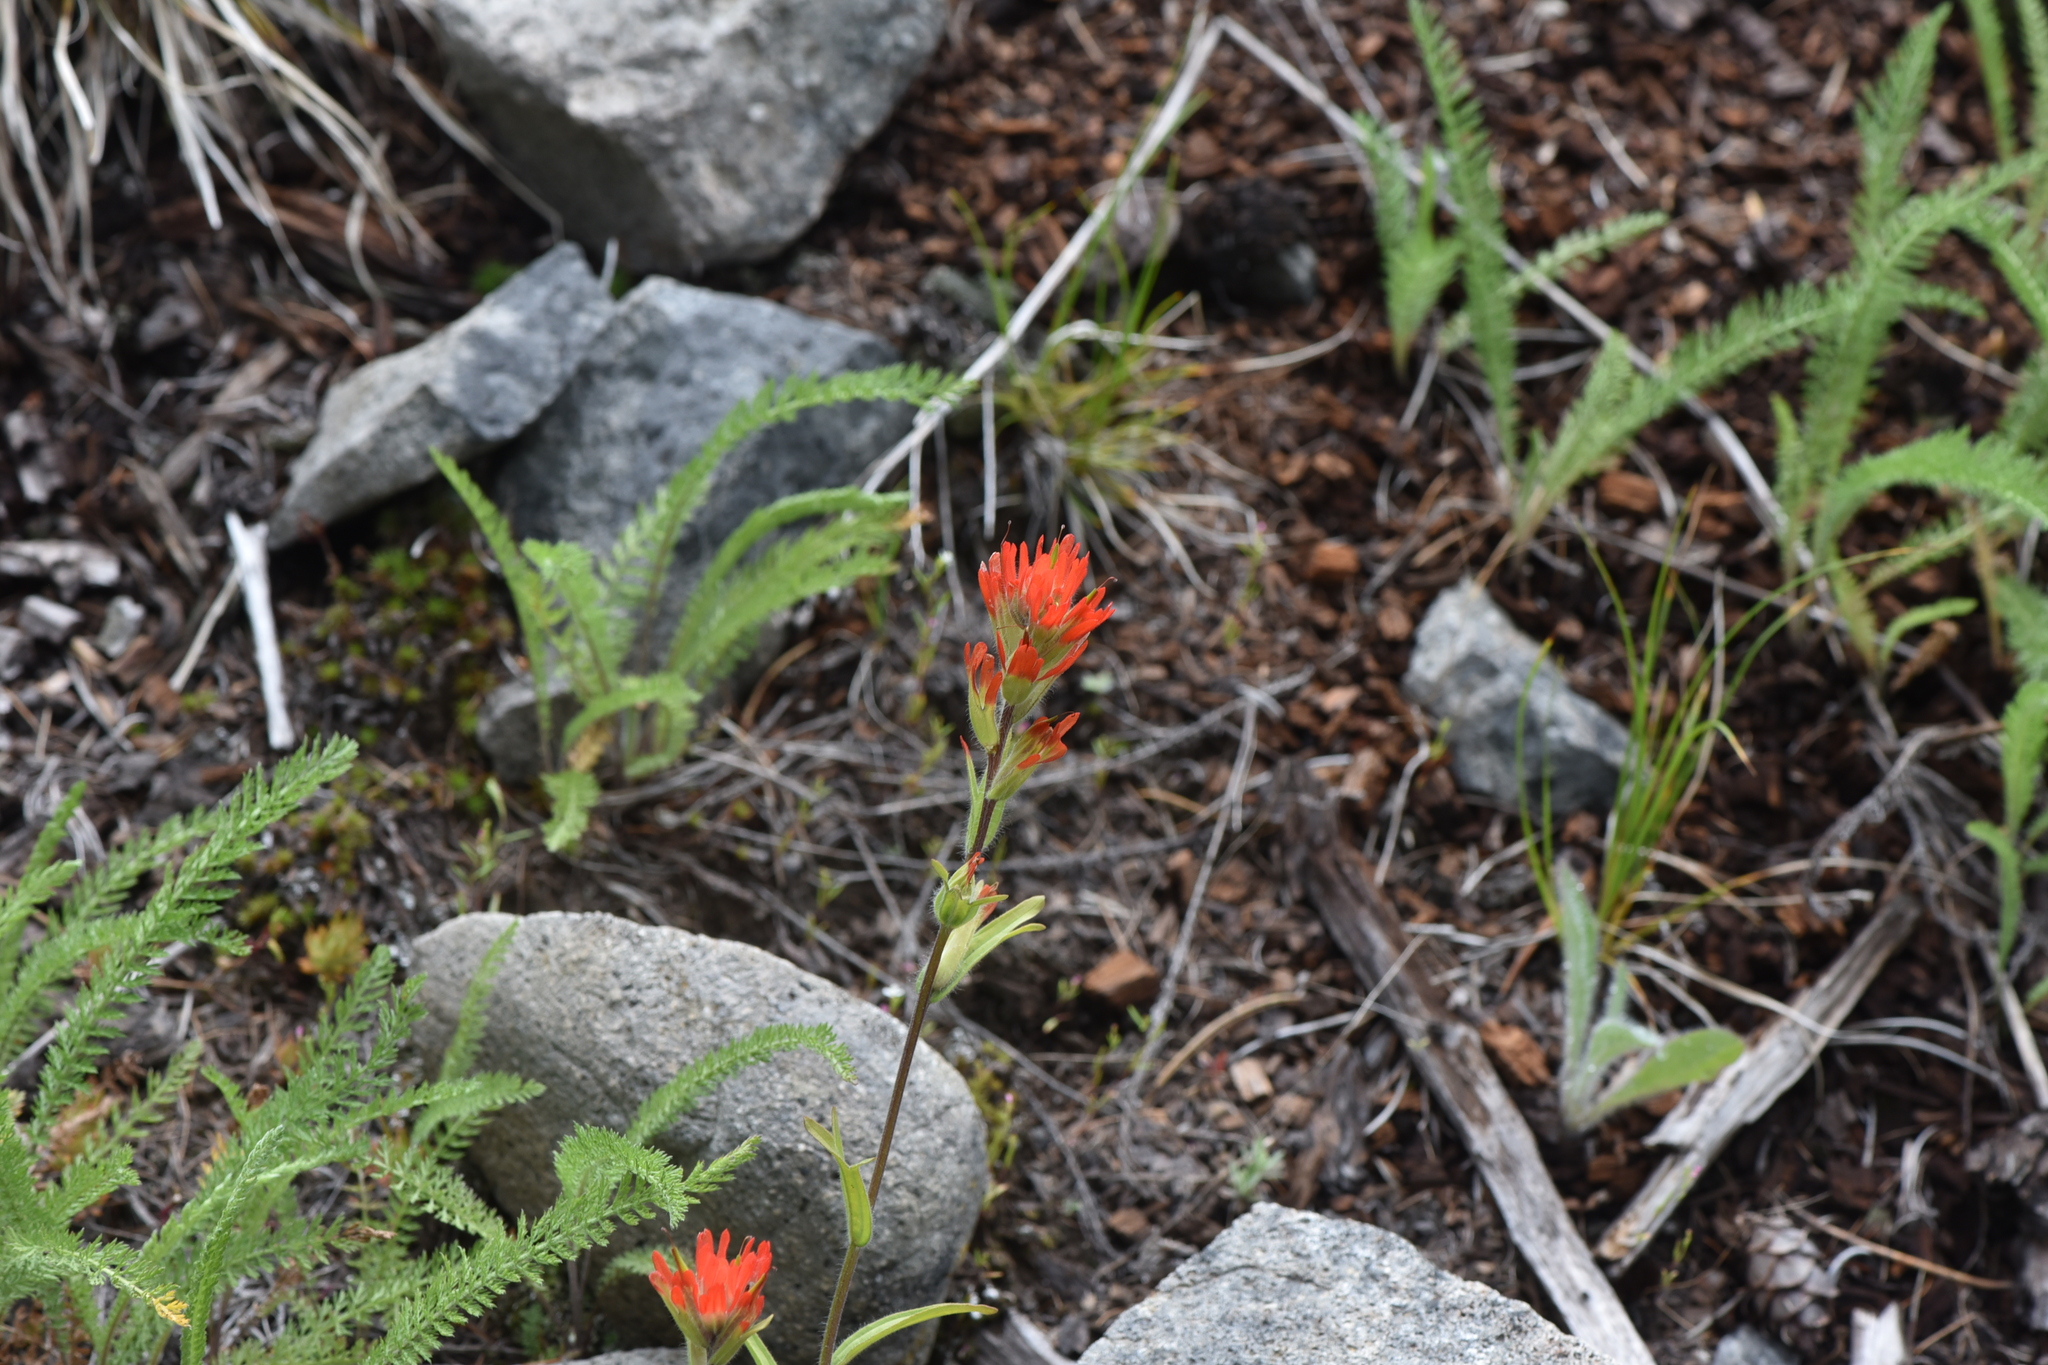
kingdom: Plantae
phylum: Tracheophyta
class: Magnoliopsida
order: Lamiales
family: Orobanchaceae
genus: Castilleja
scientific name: Castilleja hispida
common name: Bristly paintbrush
